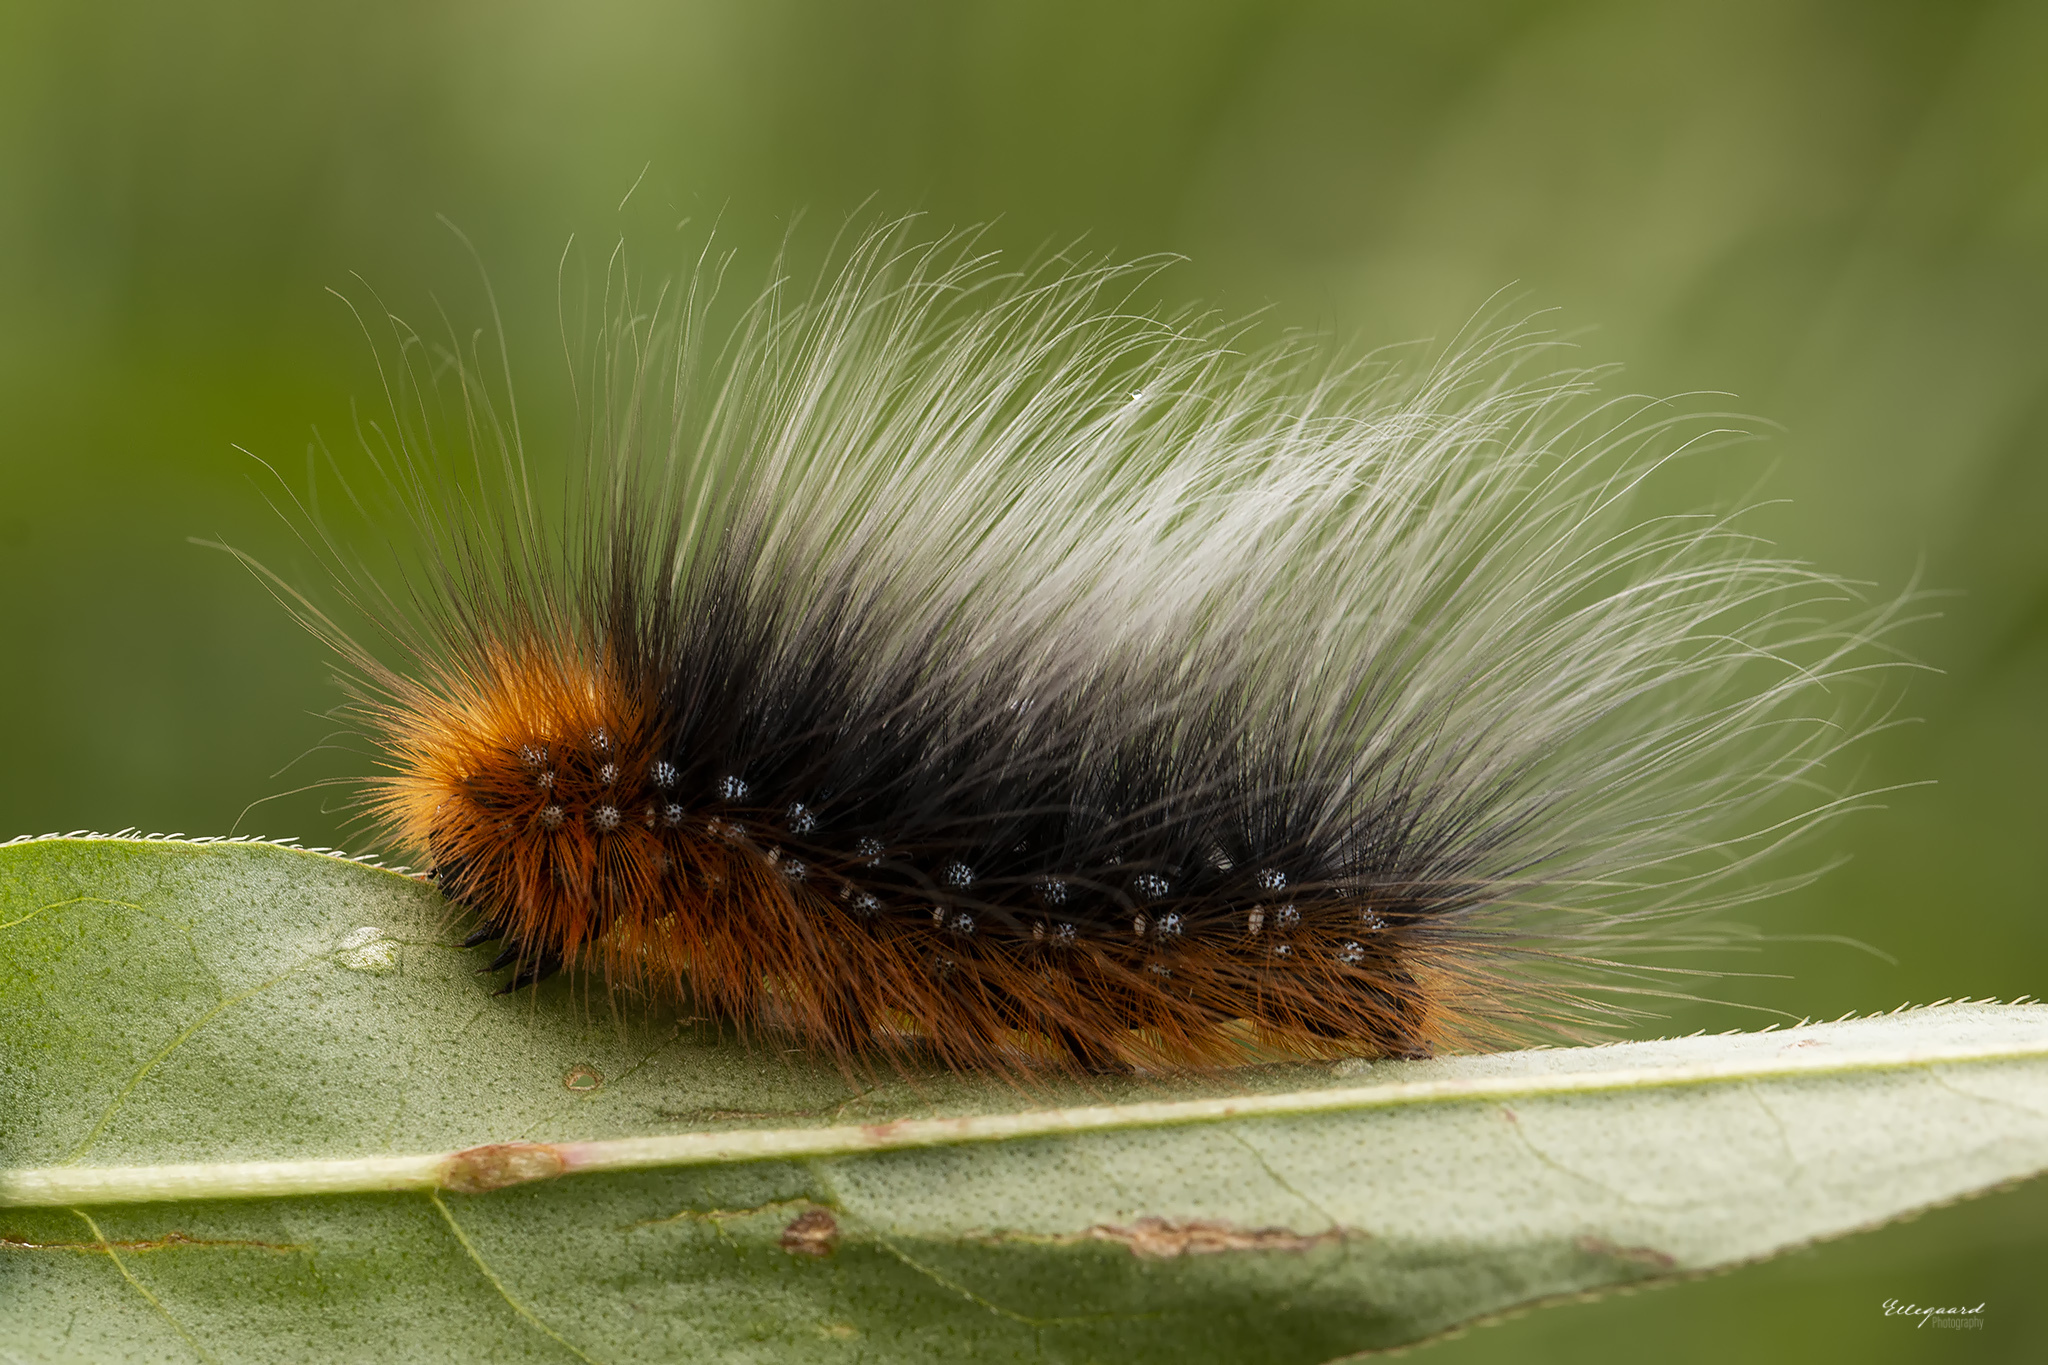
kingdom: Animalia
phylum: Arthropoda
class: Insecta
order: Lepidoptera
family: Erebidae
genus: Arctia
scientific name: Arctia caja
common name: Garden tiger
